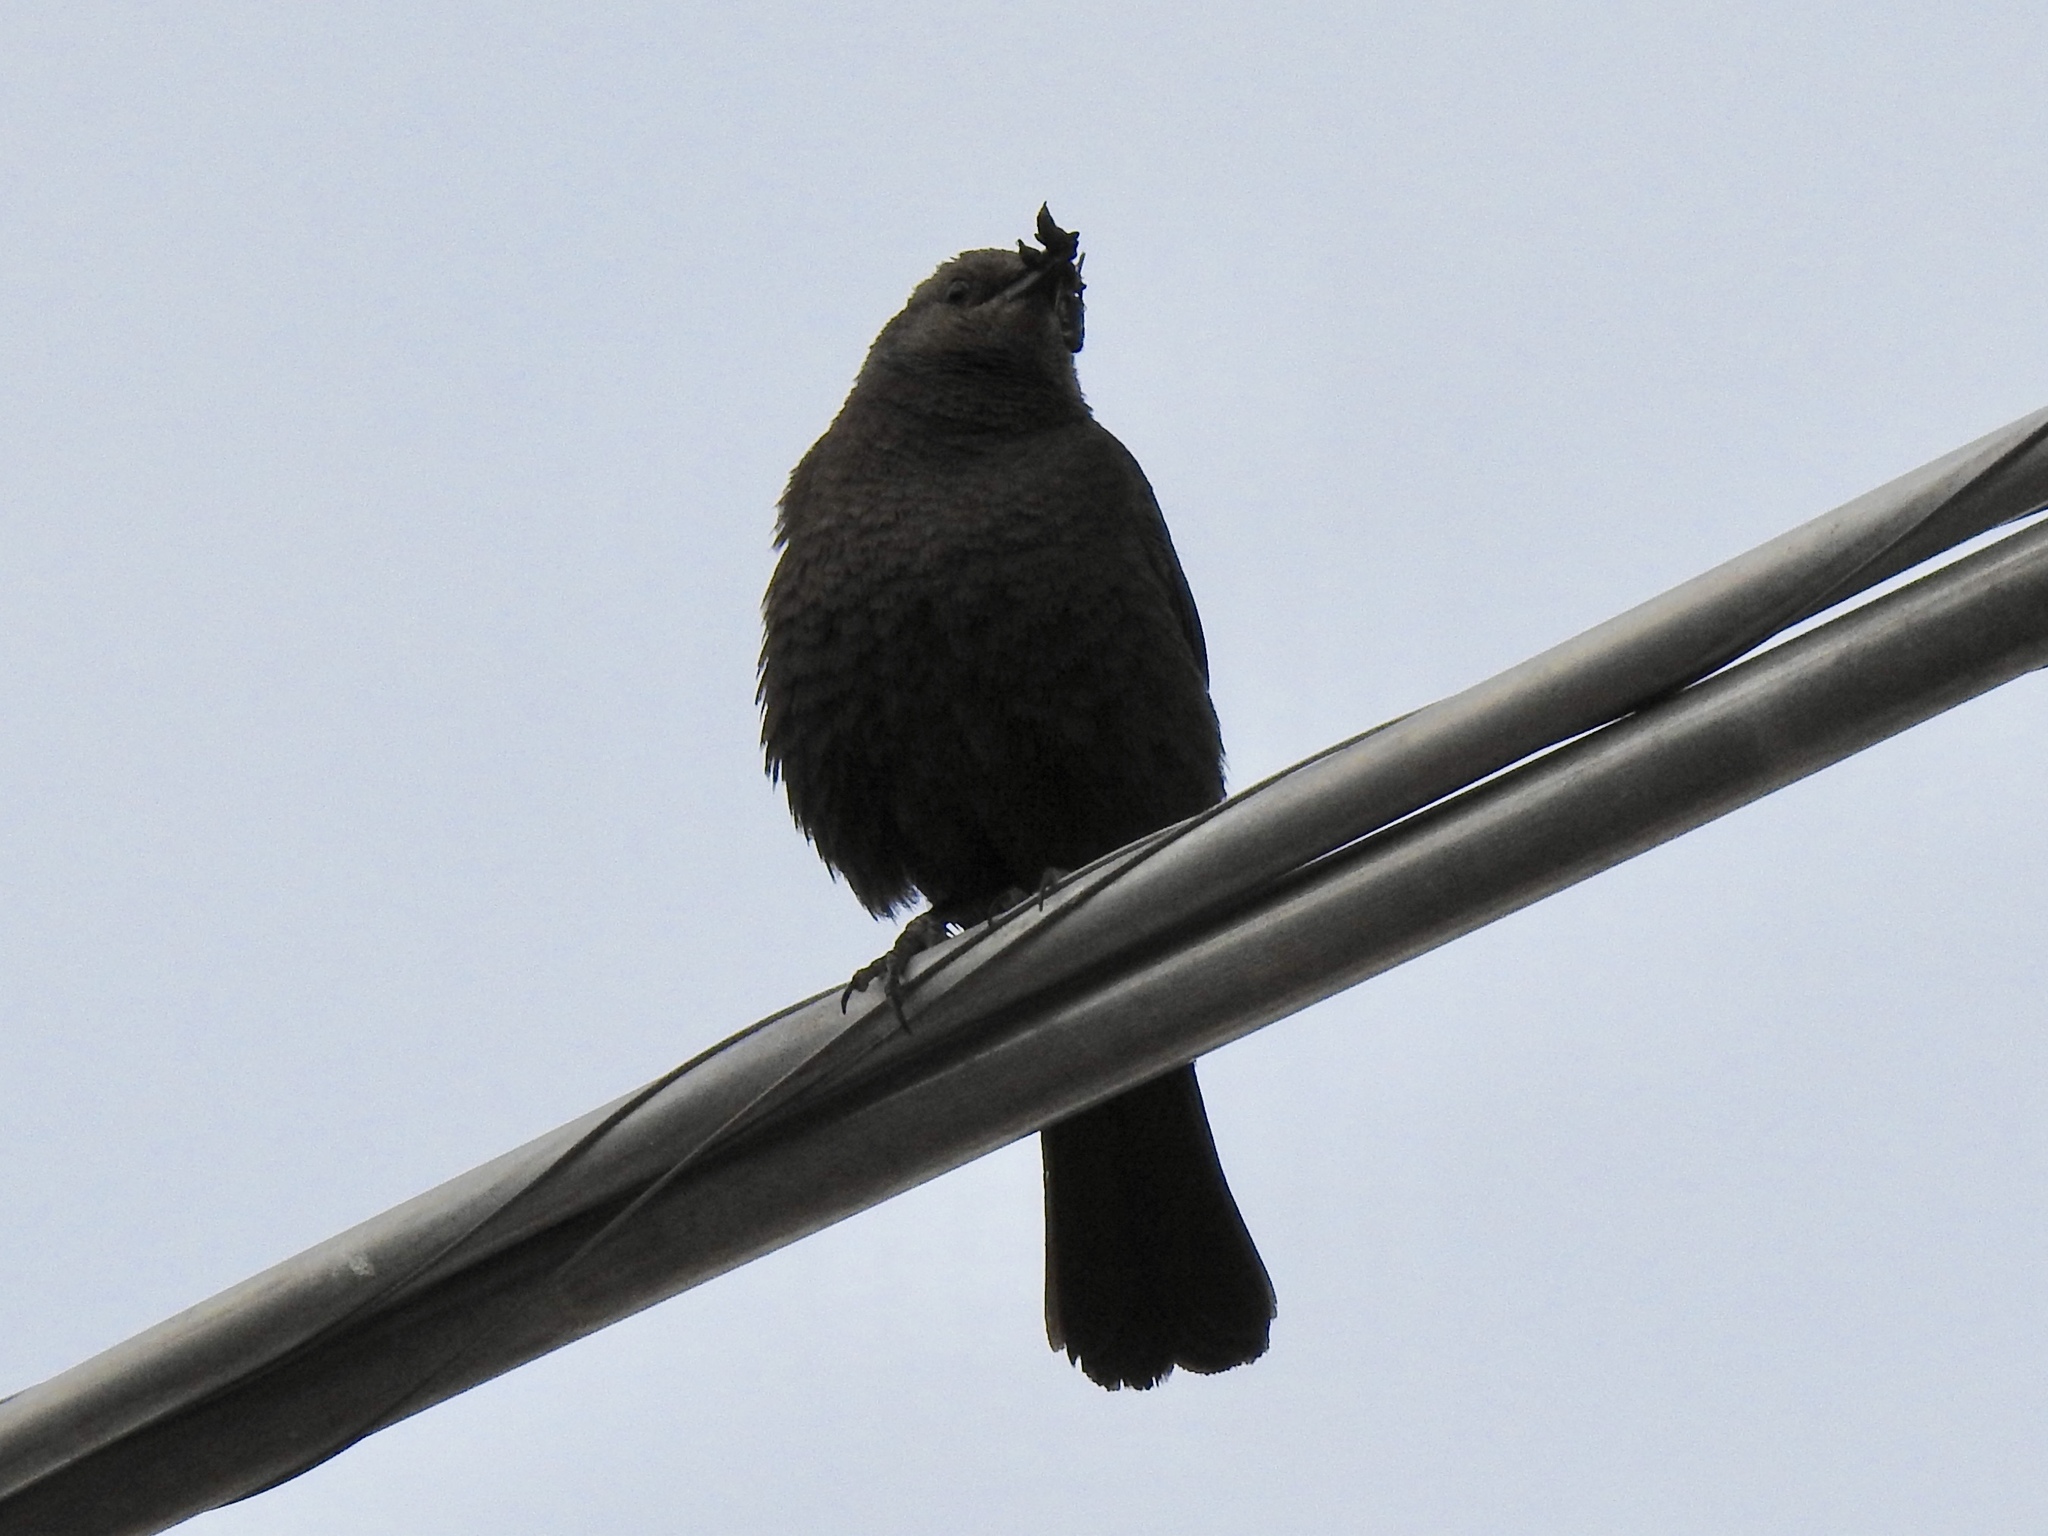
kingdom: Animalia
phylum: Chordata
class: Aves
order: Passeriformes
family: Icteridae
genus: Euphagus
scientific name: Euphagus cyanocephalus
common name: Brewer's blackbird
